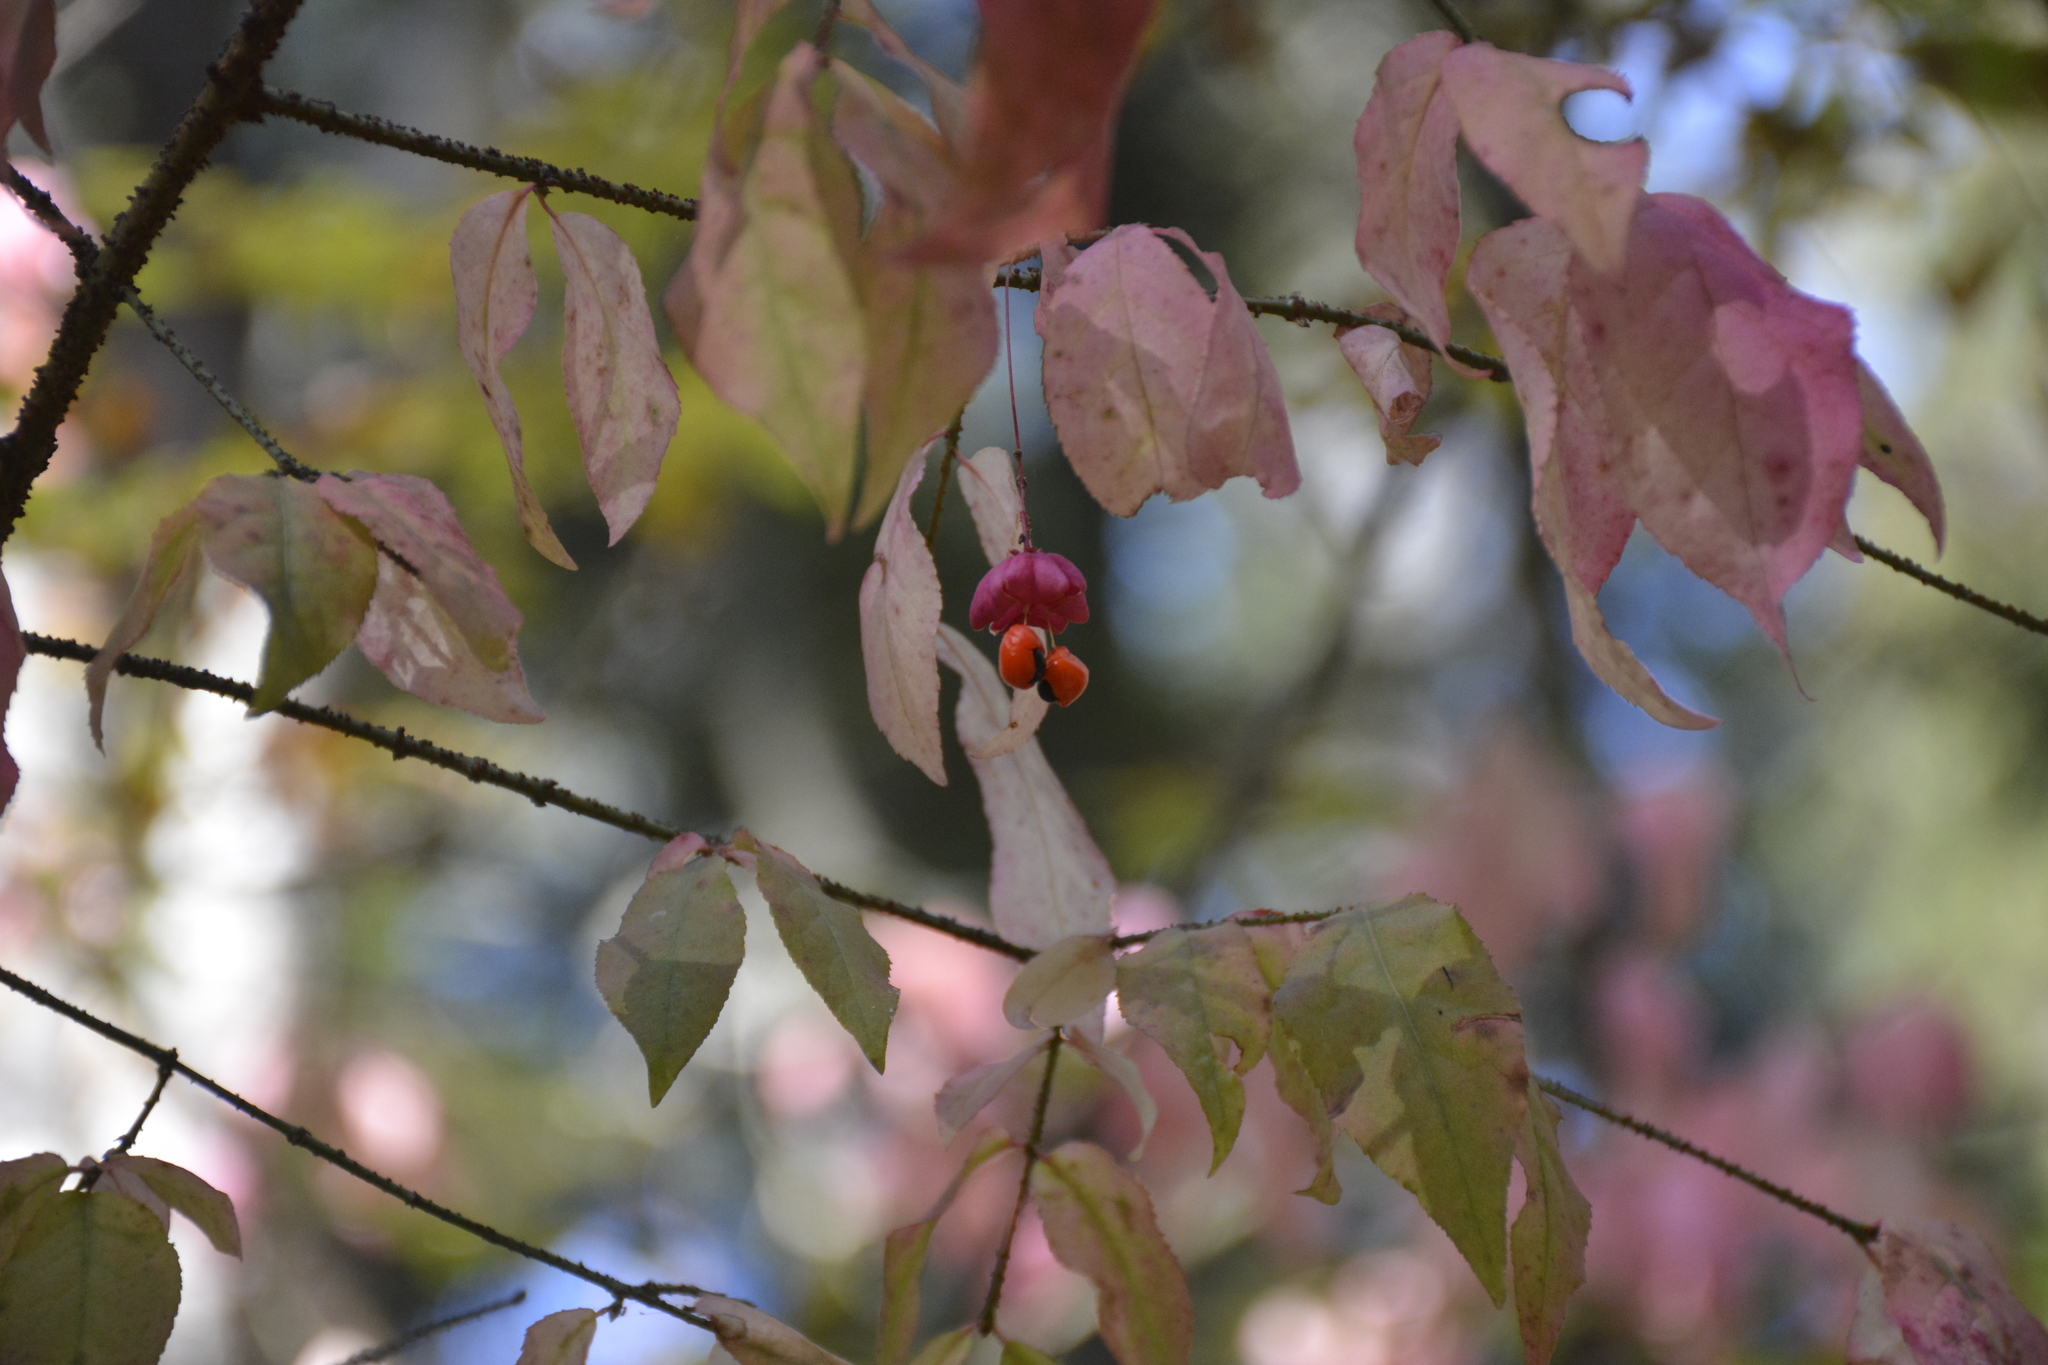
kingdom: Plantae
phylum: Tracheophyta
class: Magnoliopsida
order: Celastrales
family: Celastraceae
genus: Euonymus
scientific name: Euonymus verrucosus
